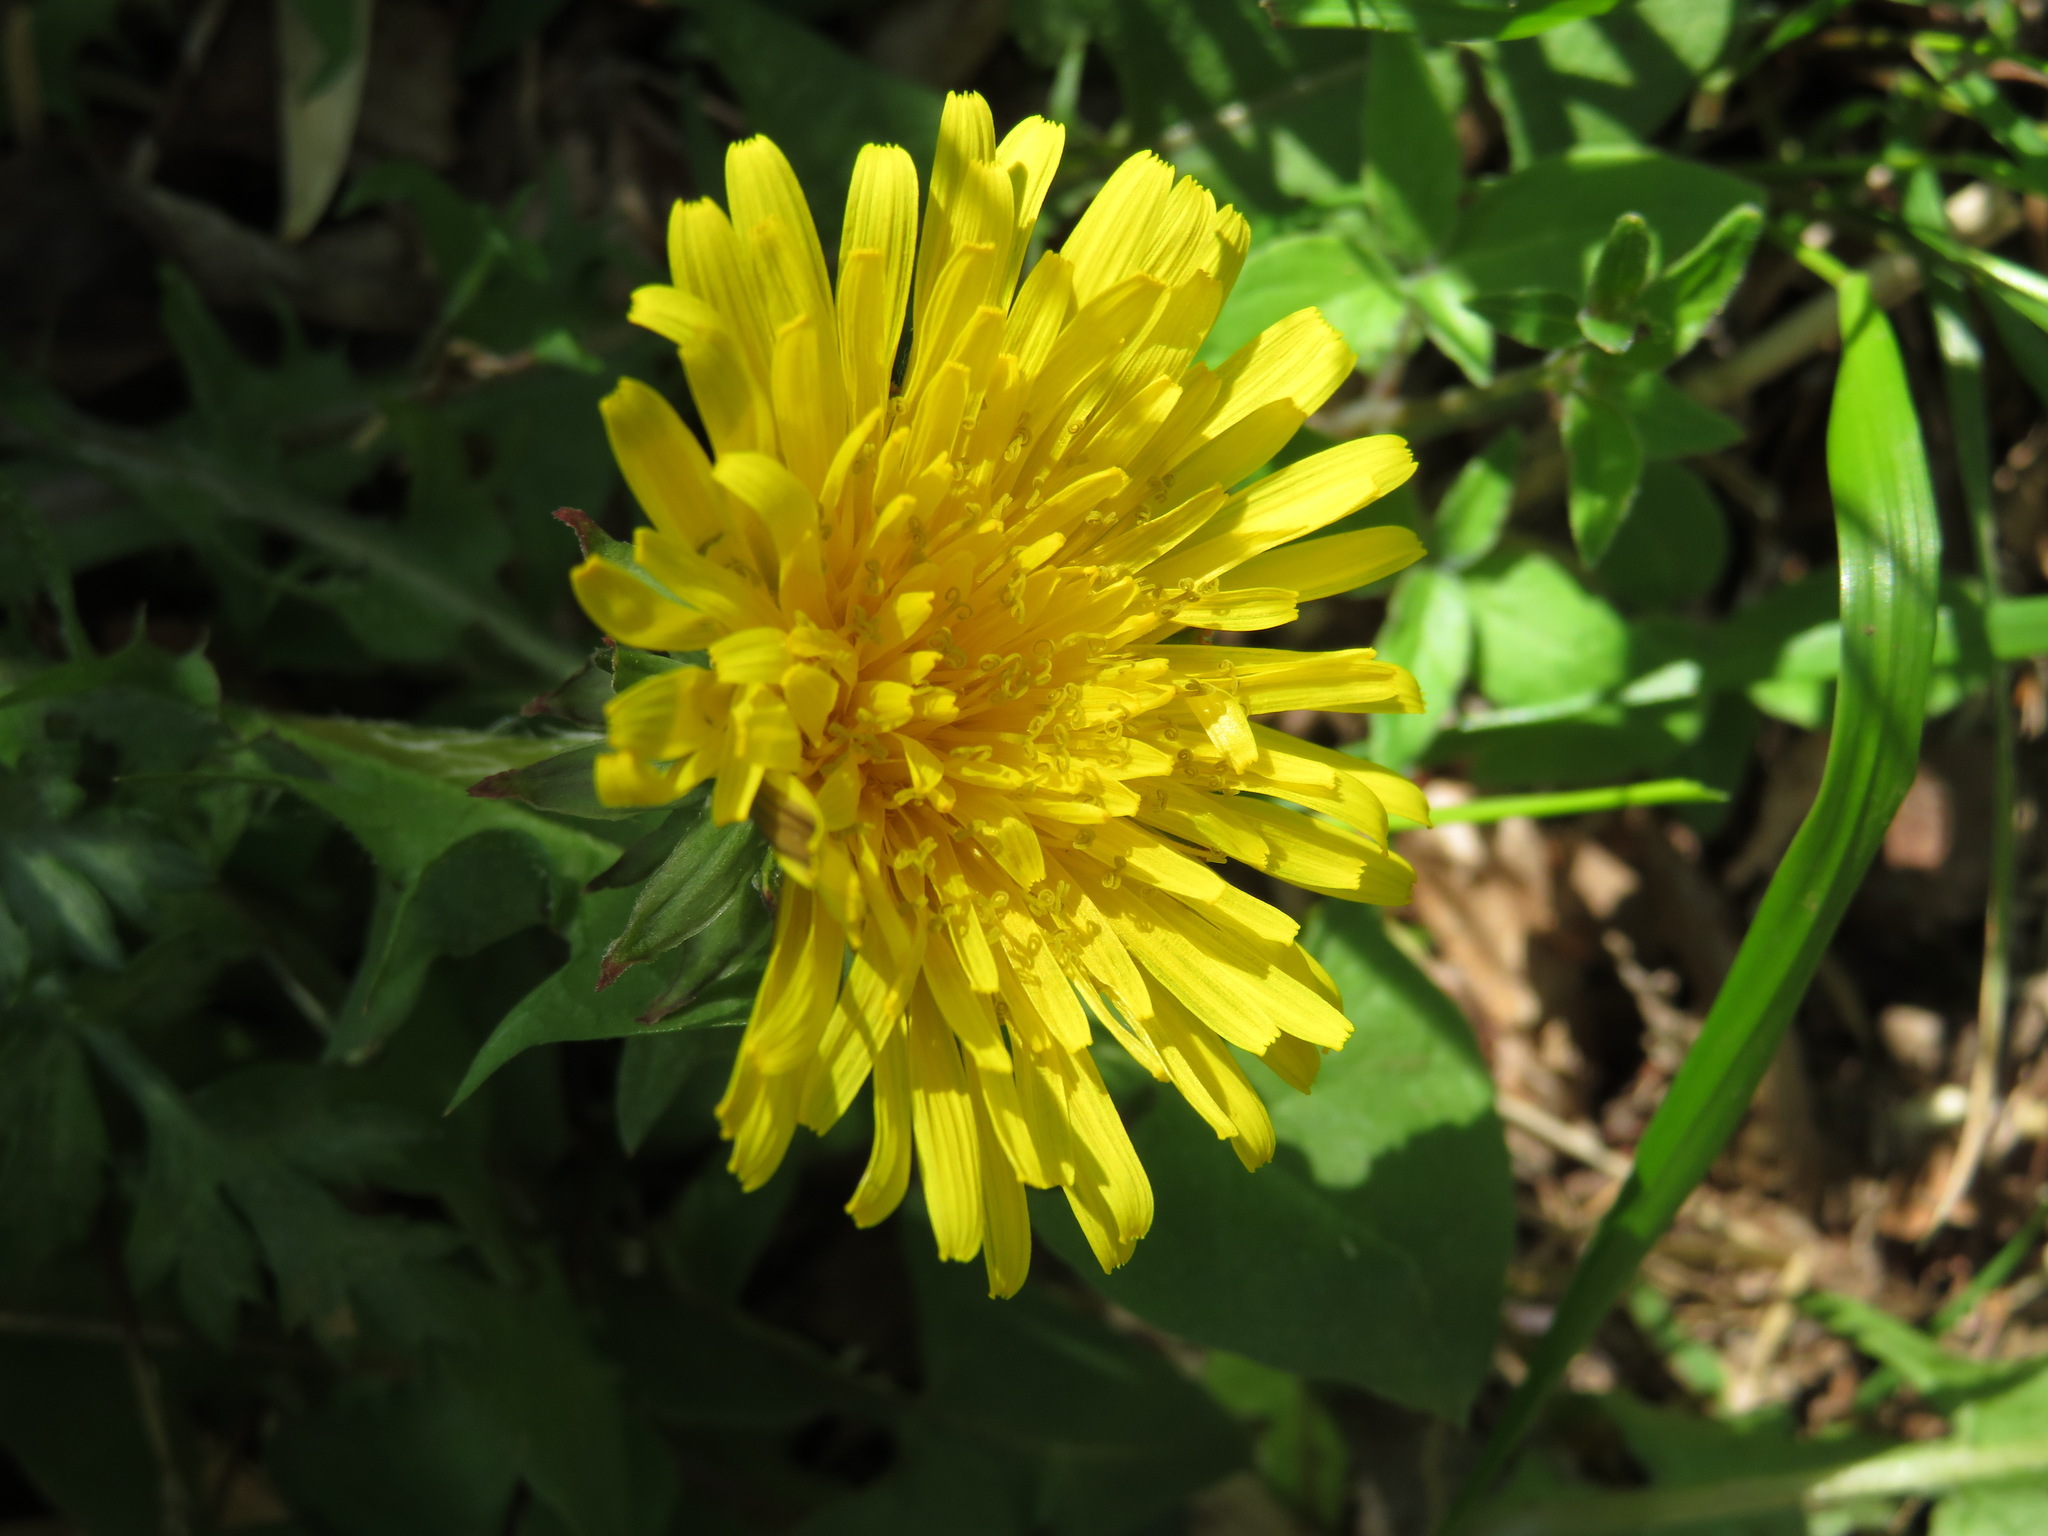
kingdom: Plantae
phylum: Tracheophyta
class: Magnoliopsida
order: Asterales
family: Asteraceae
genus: Taraxacum
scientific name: Taraxacum officinale
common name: Common dandelion
